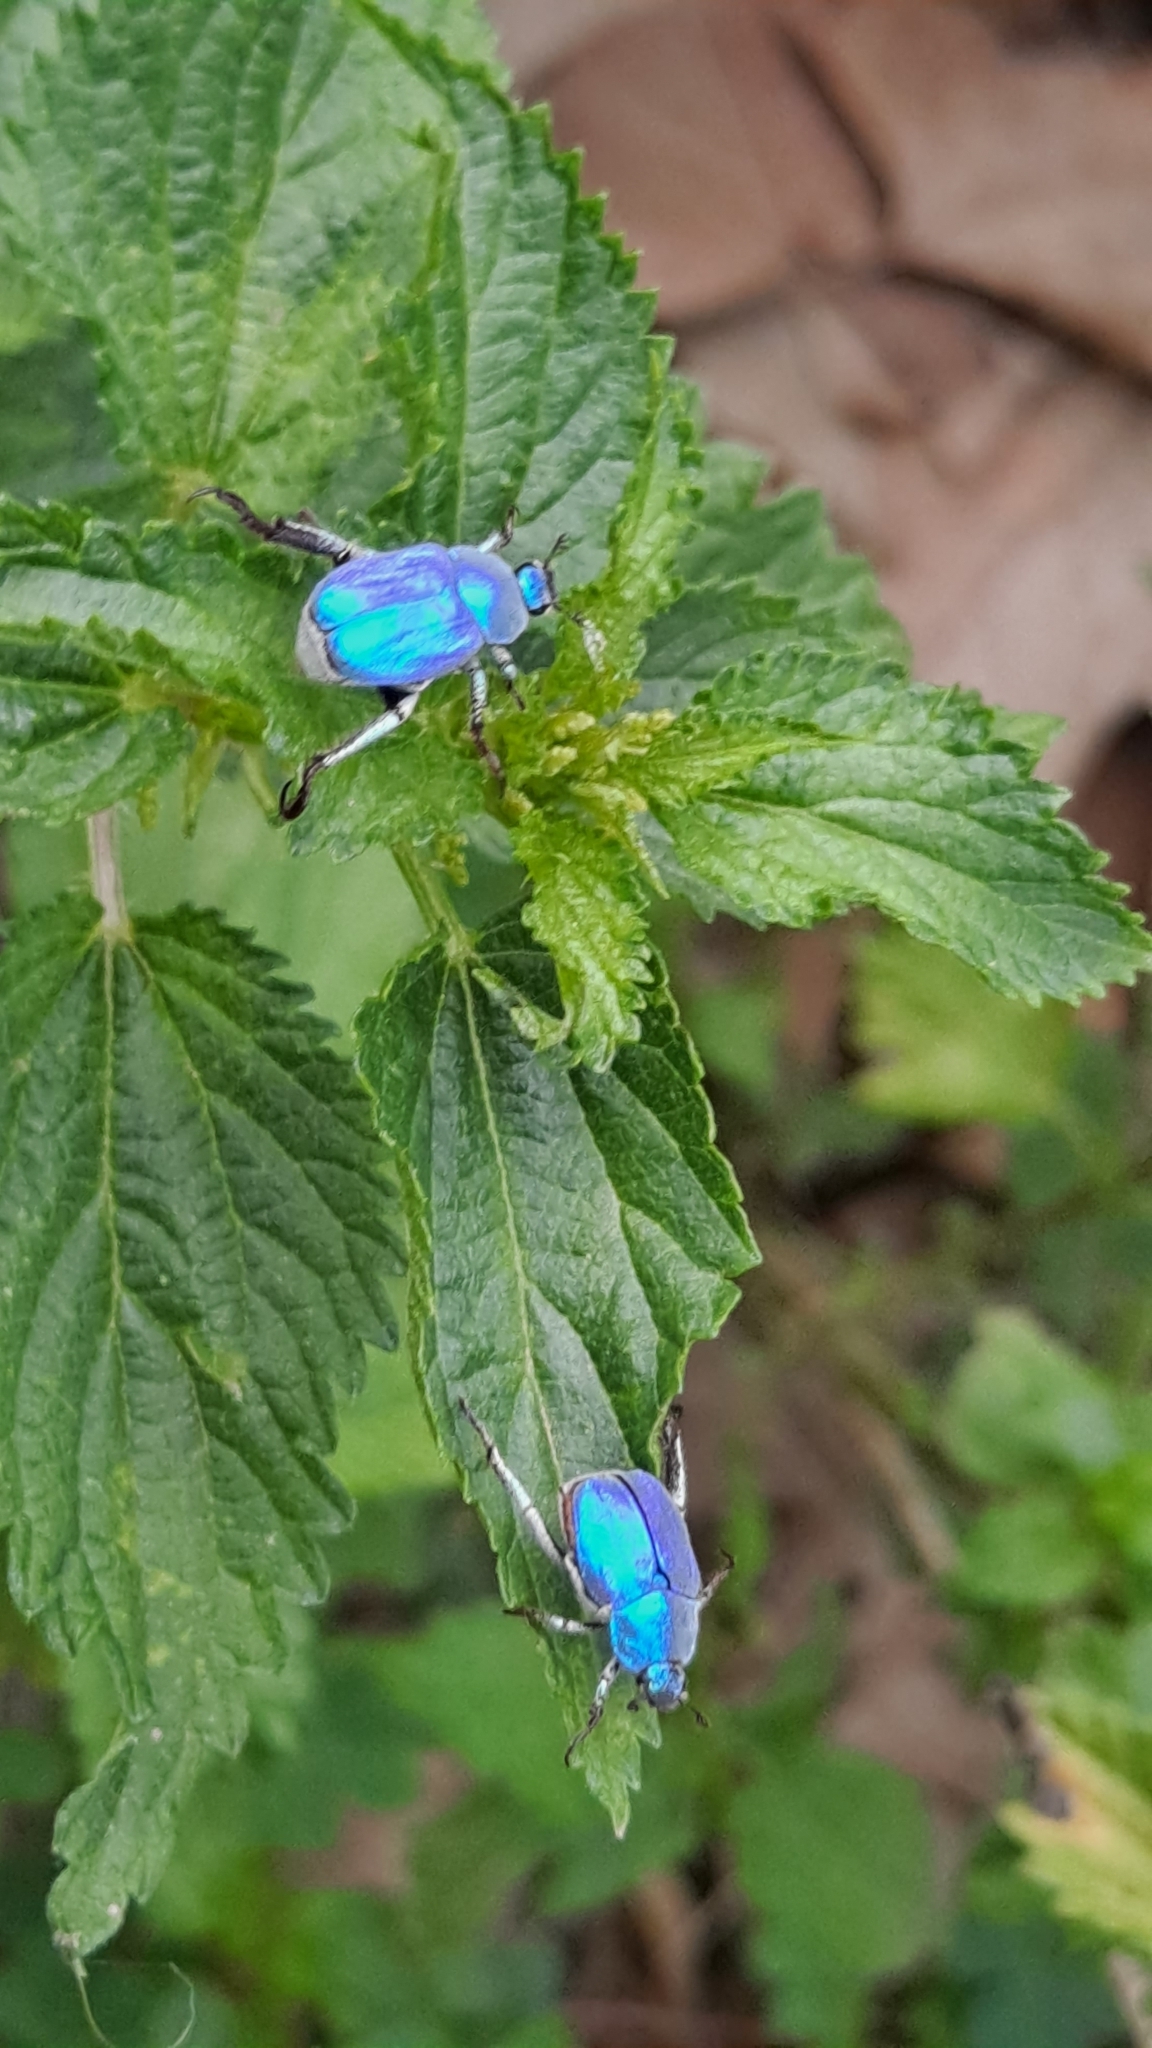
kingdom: Animalia
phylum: Arthropoda
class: Insecta
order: Coleoptera
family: Scarabaeidae
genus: Hoplia
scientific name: Hoplia coerulea
